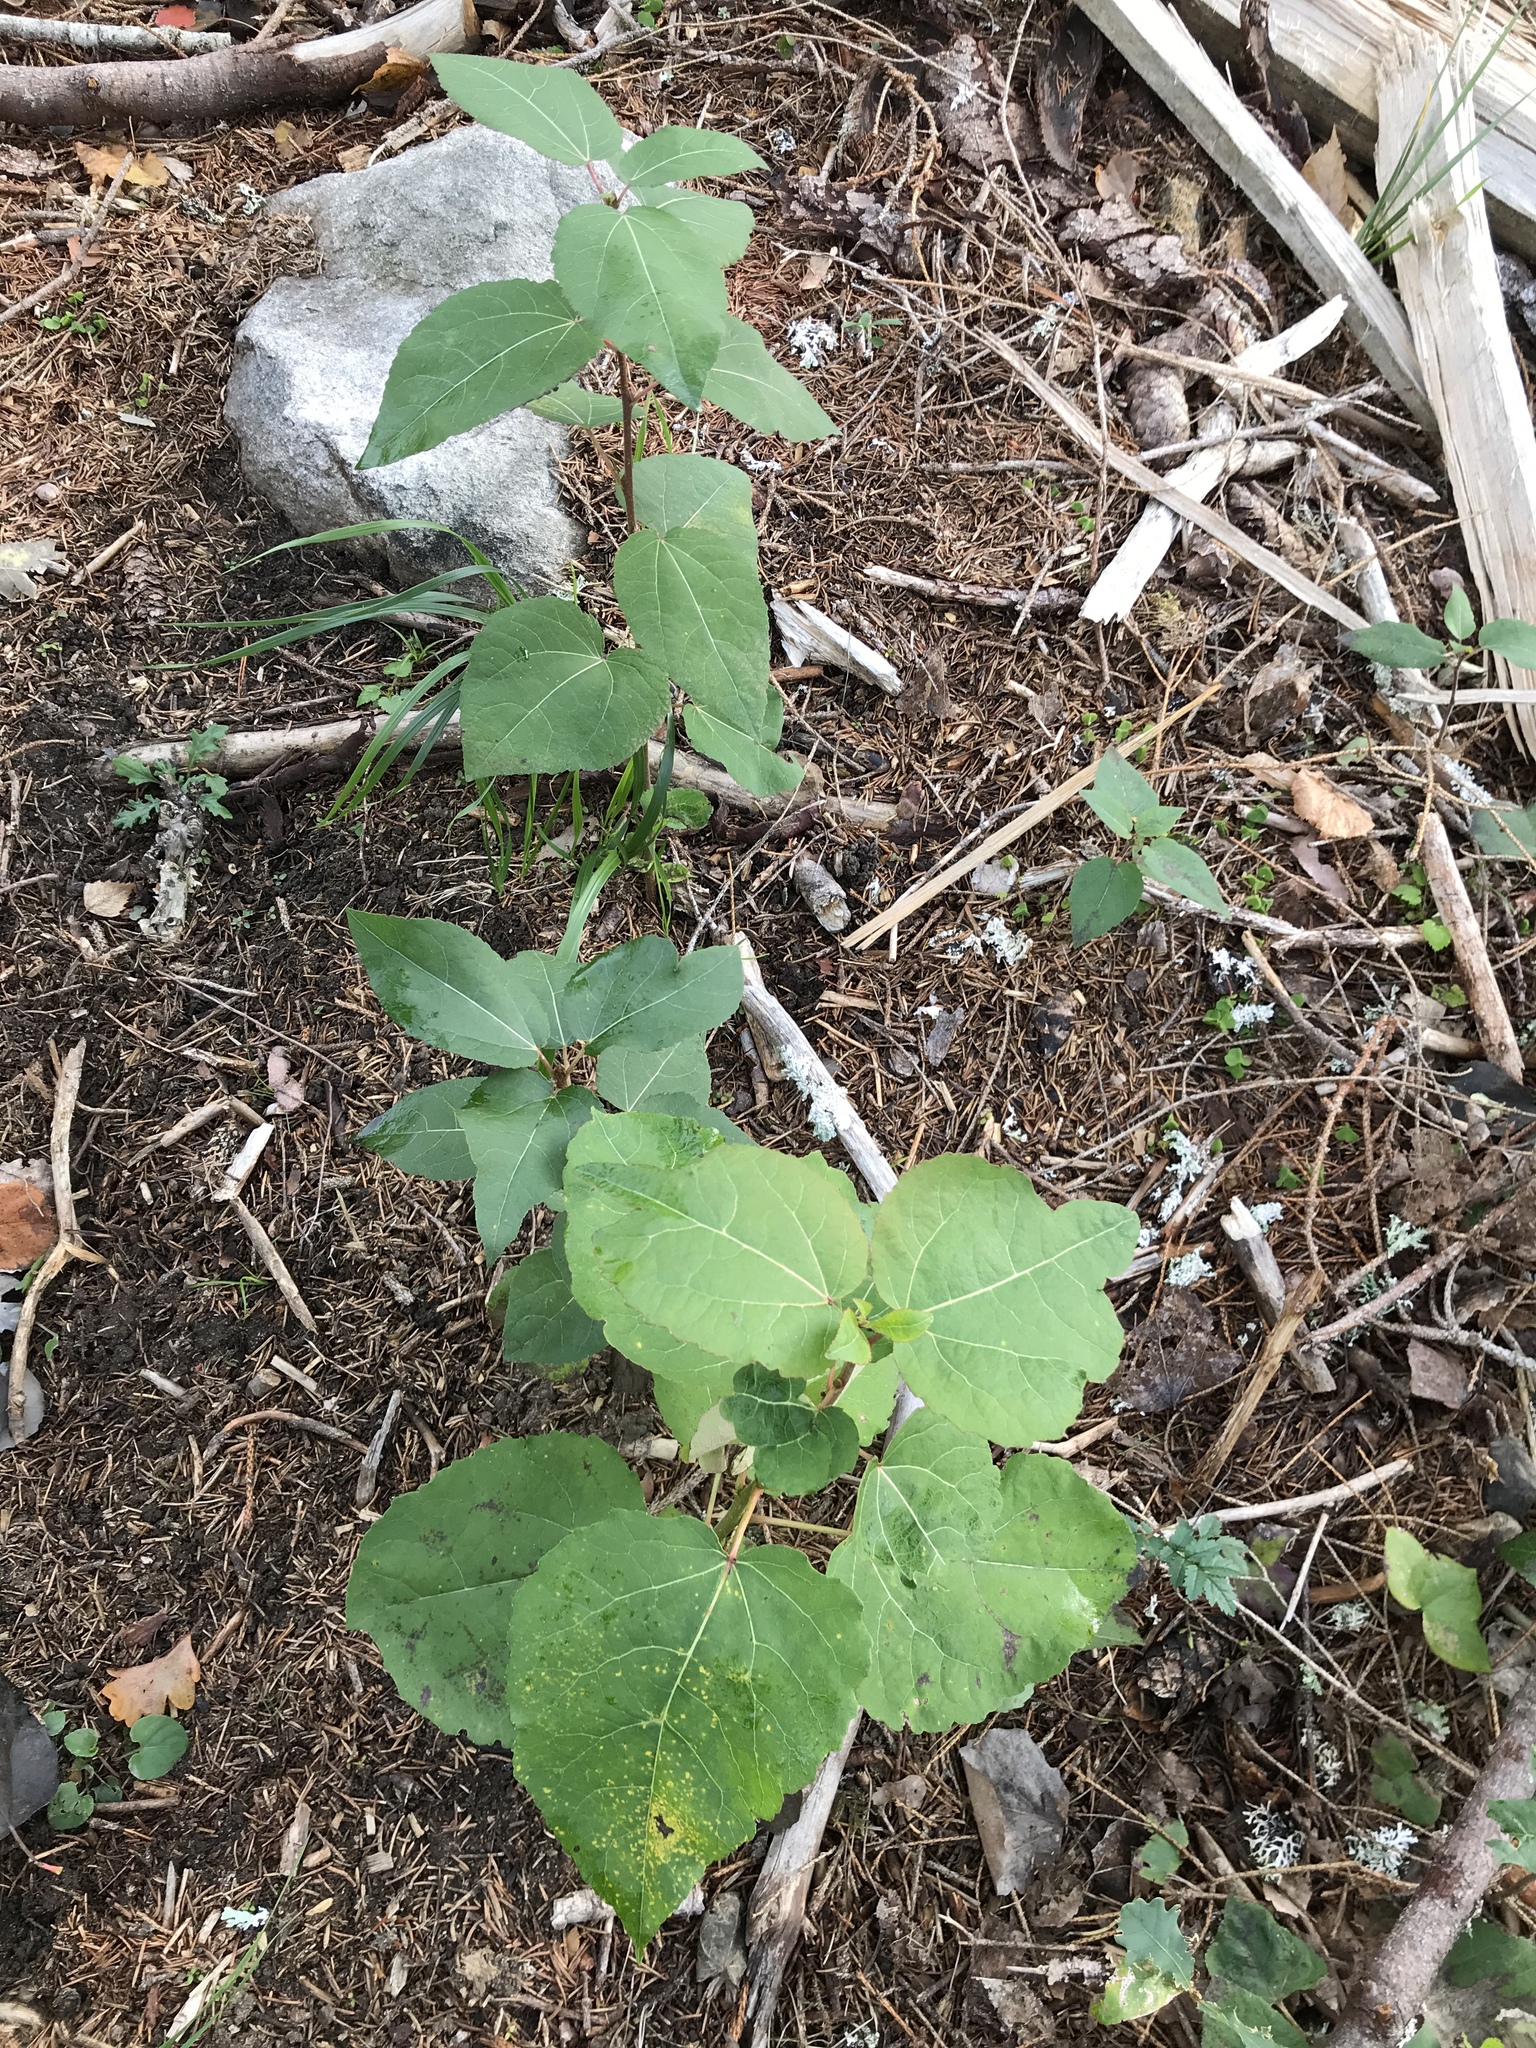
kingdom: Plantae
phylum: Tracheophyta
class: Magnoliopsida
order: Malpighiales
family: Salicaceae
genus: Populus
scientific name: Populus tremula
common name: European aspen
